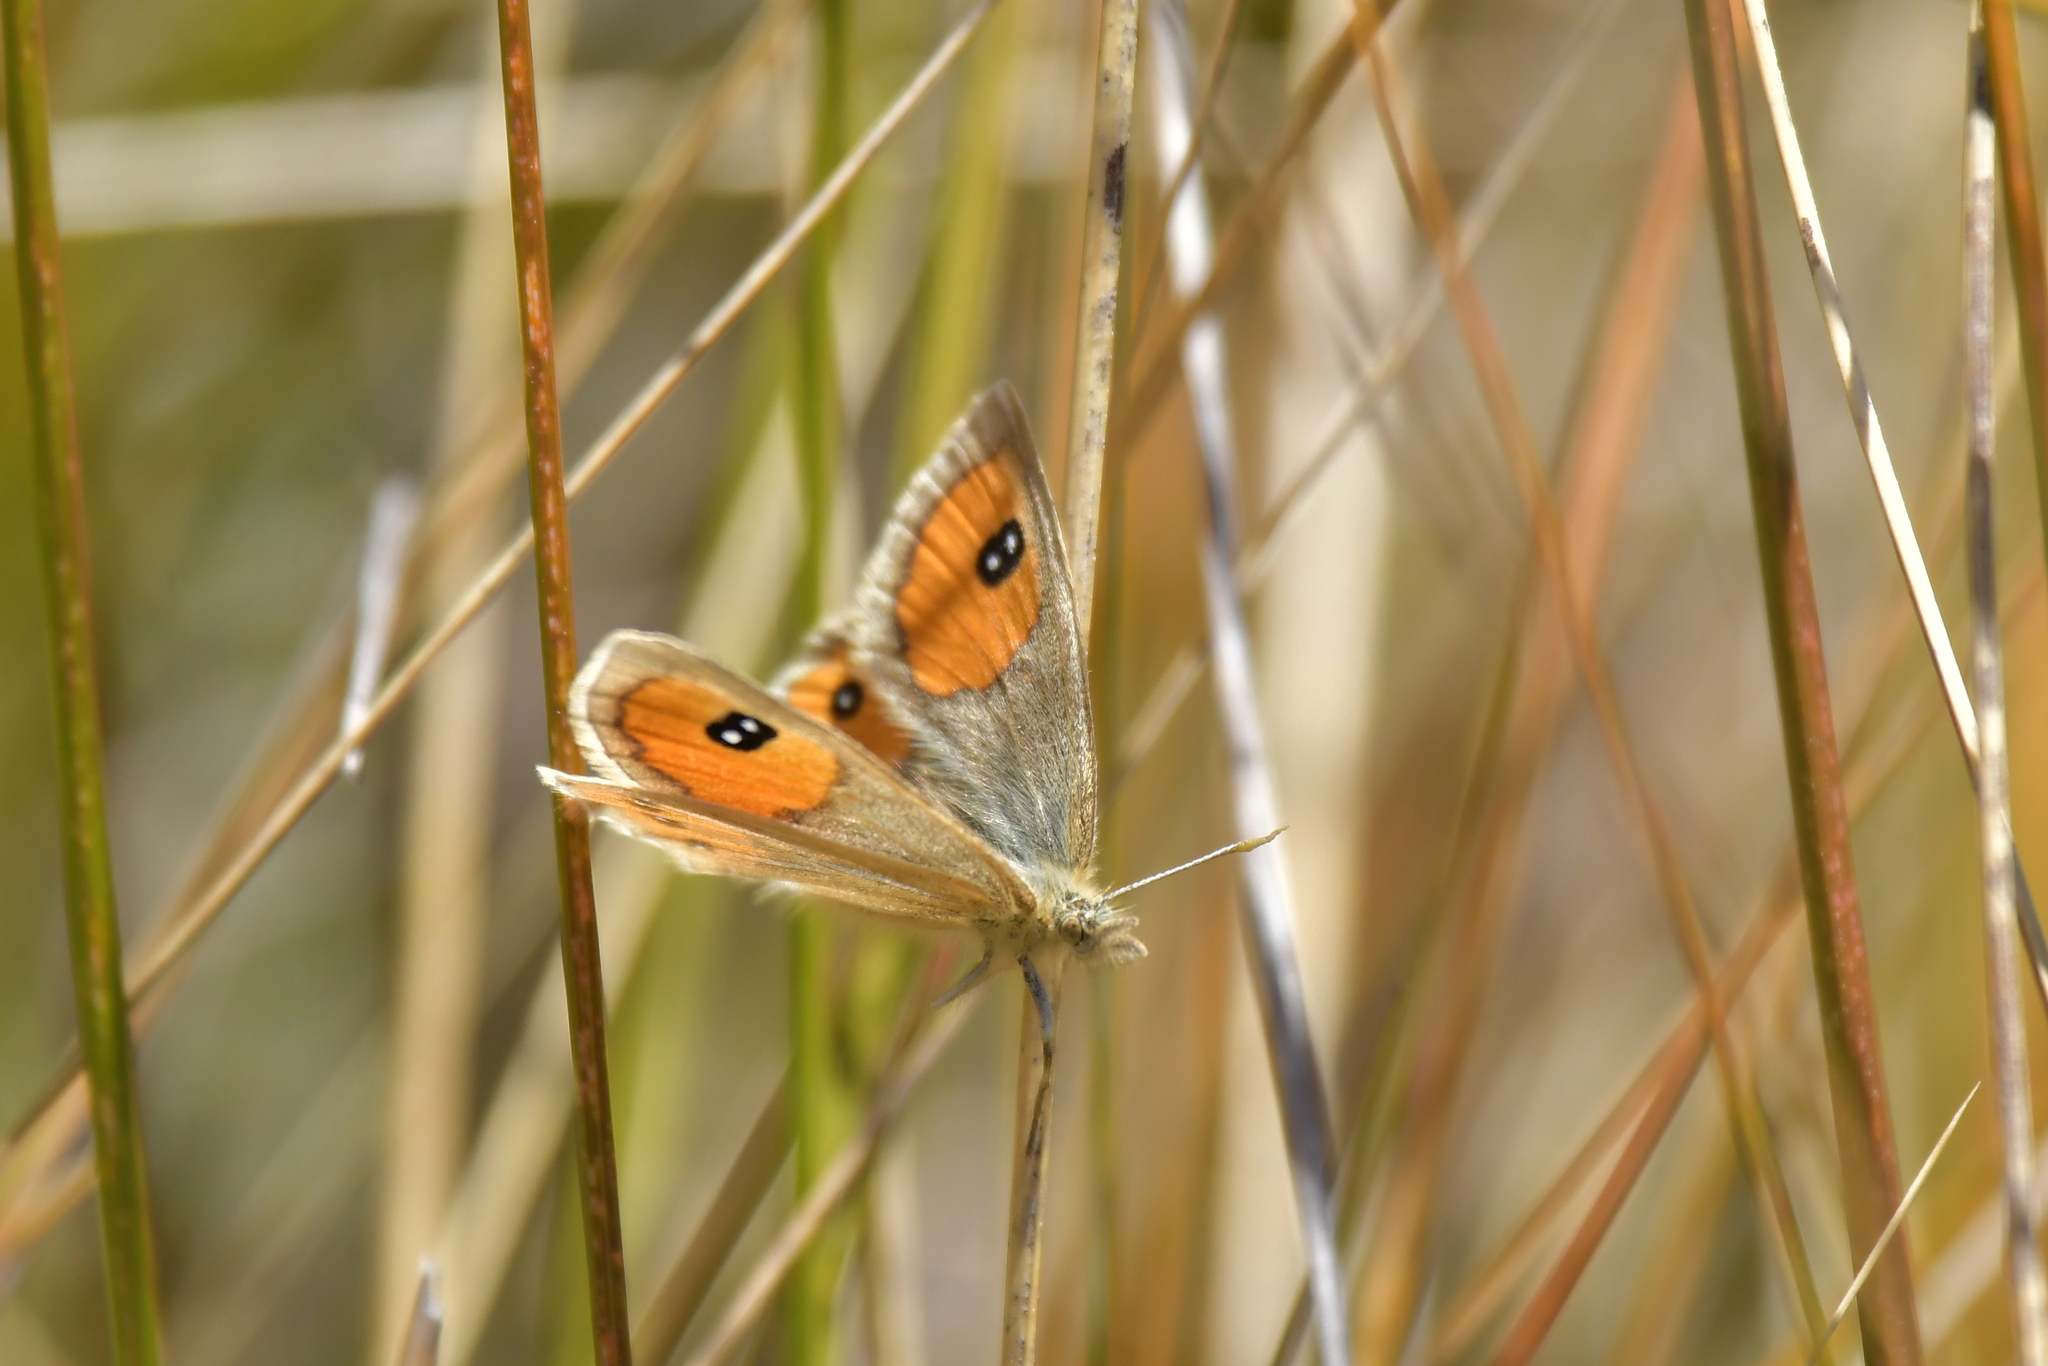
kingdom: Animalia
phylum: Arthropoda
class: Insecta
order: Lepidoptera
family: Nymphalidae
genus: Argyrophenga
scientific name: Argyrophenga antipodum
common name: Common tussock butterfly
